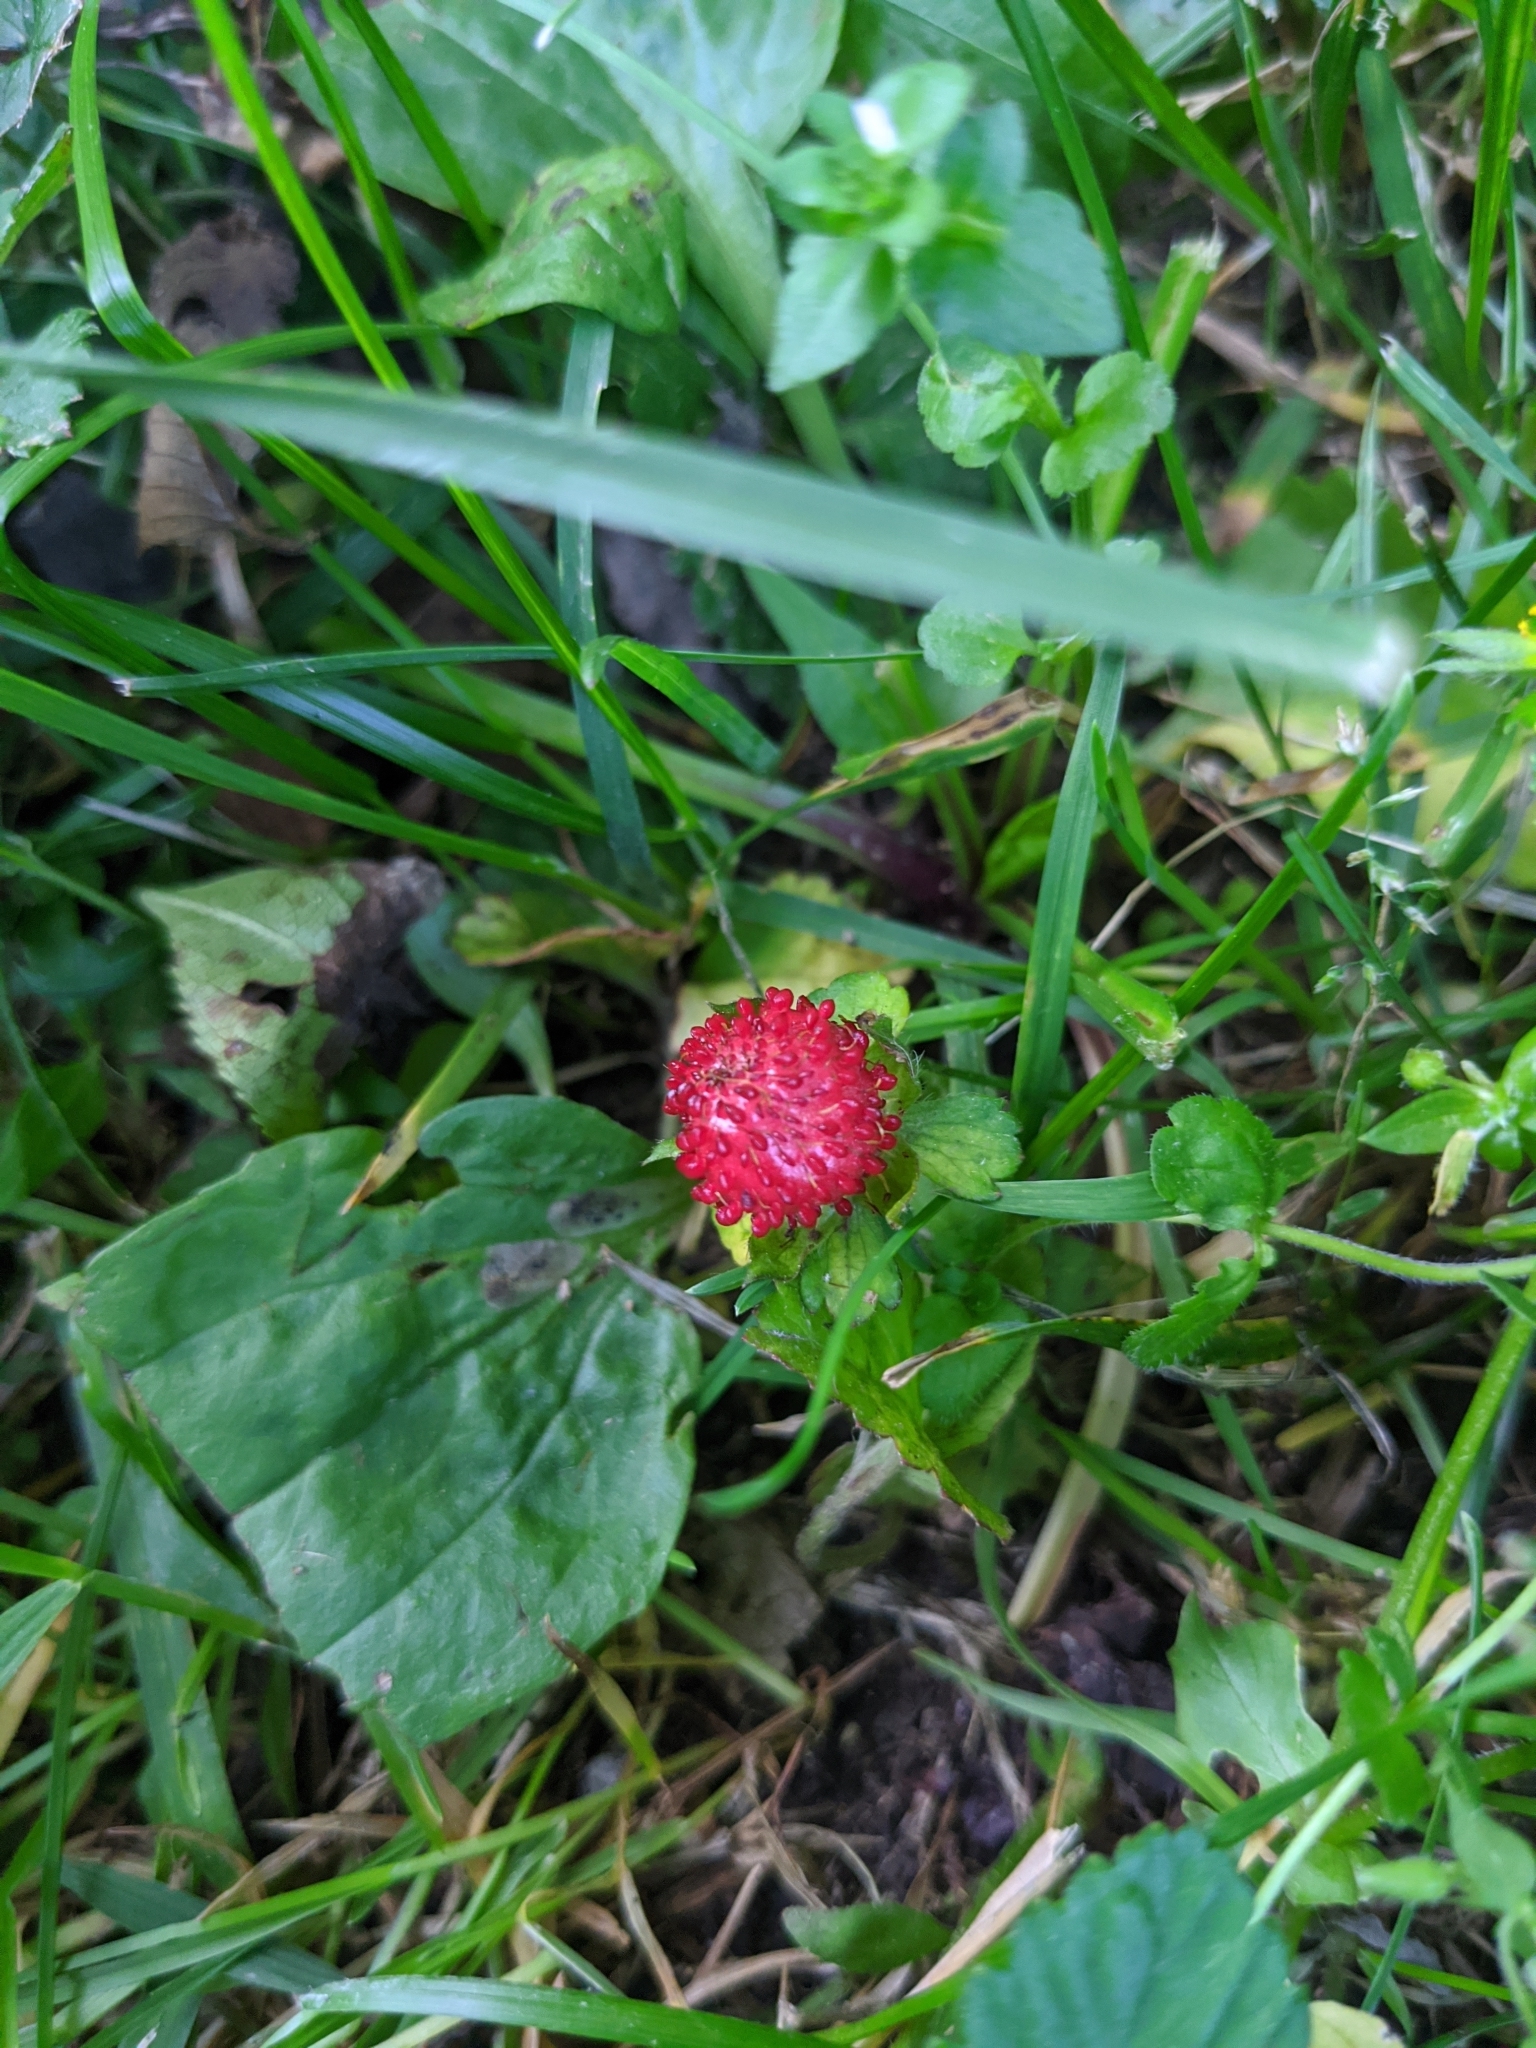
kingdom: Plantae
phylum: Tracheophyta
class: Magnoliopsida
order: Rosales
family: Rosaceae
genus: Potentilla
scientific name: Potentilla indica
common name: Yellow-flowered strawberry
